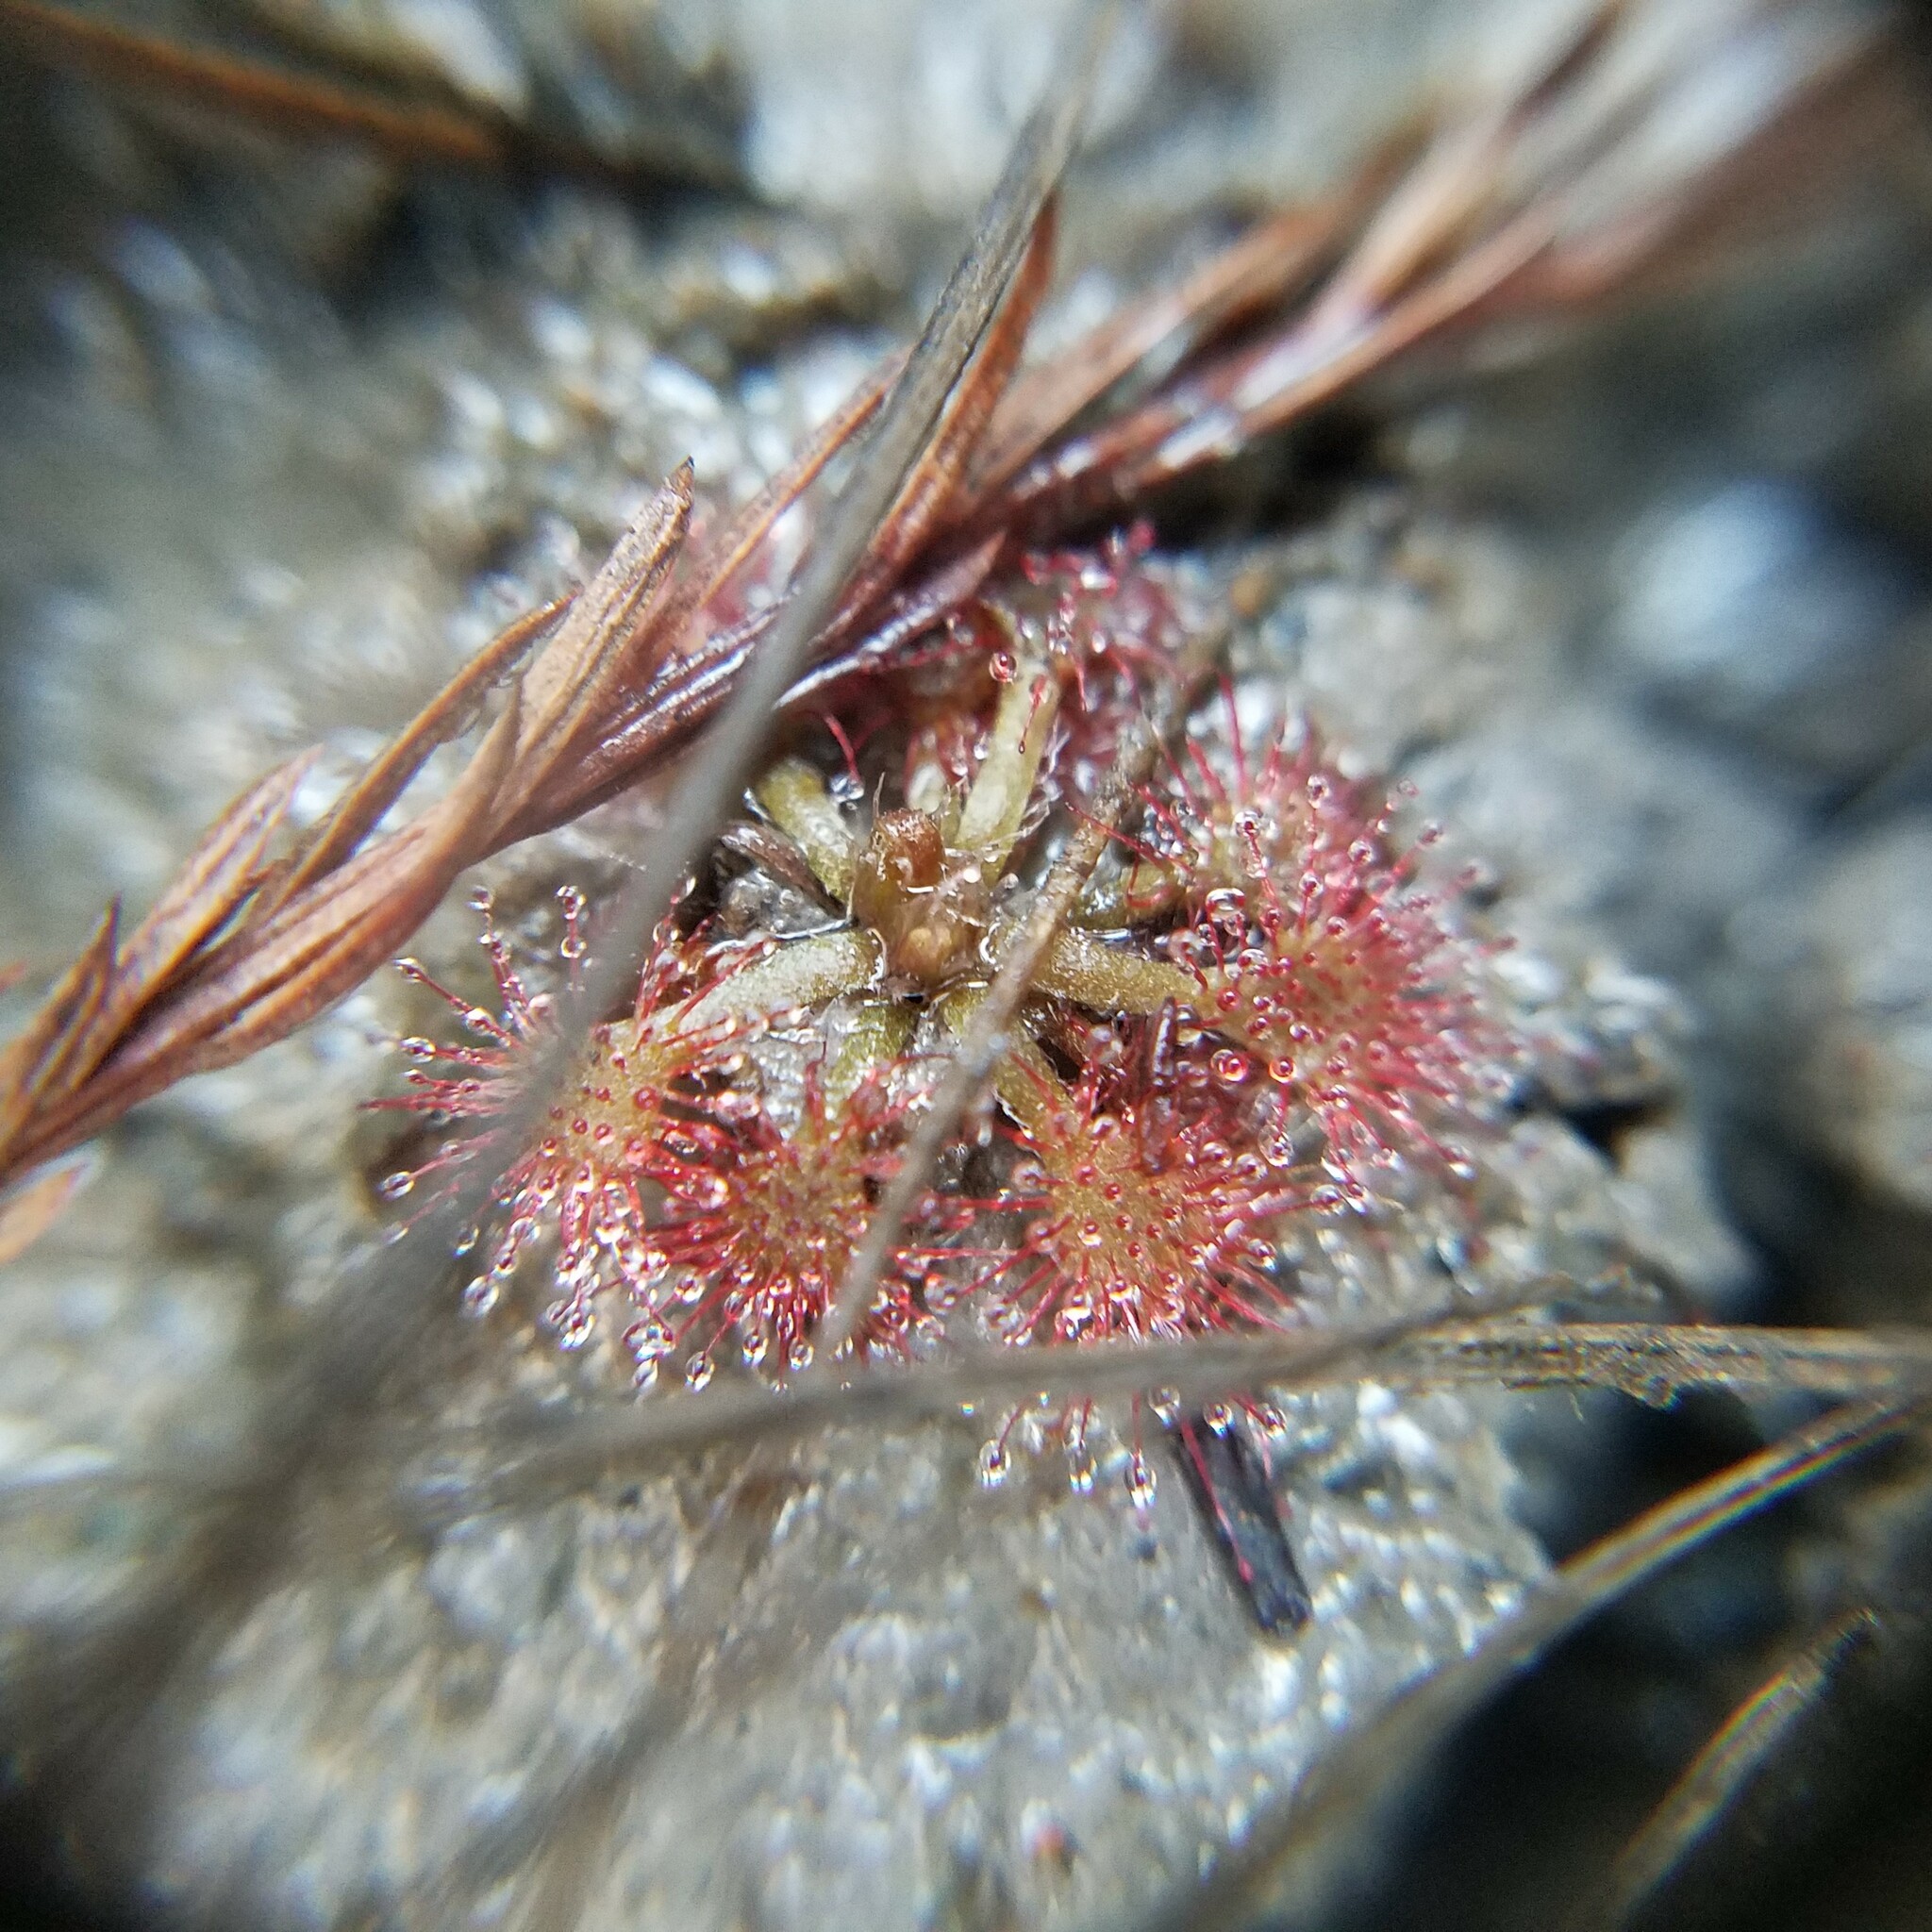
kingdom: Plantae
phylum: Tracheophyta
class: Magnoliopsida
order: Caryophyllales
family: Droseraceae
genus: Drosera
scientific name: Drosera capillaris
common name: Pink sundew
